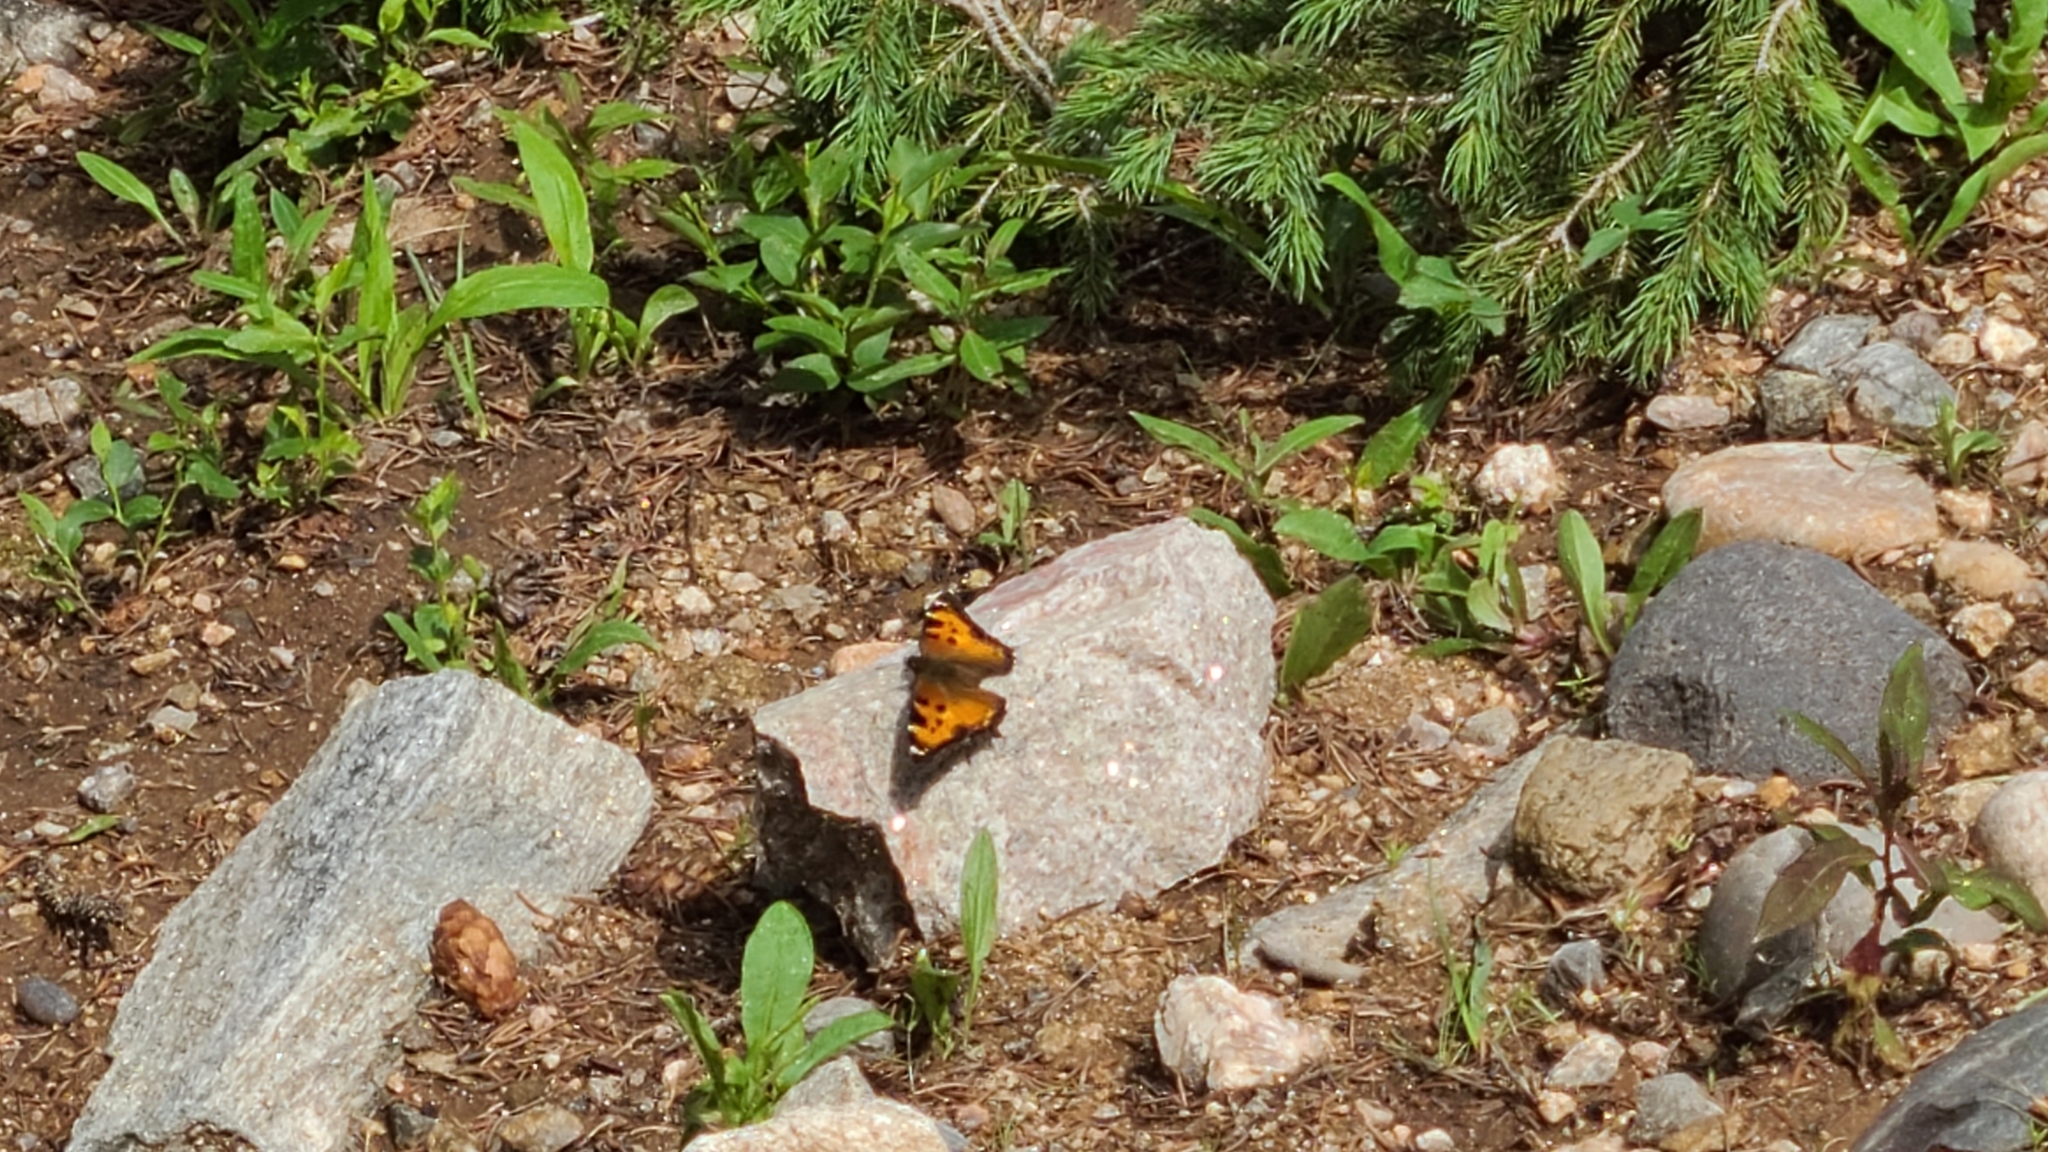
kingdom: Animalia
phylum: Arthropoda
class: Insecta
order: Lepidoptera
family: Nymphalidae
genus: Nymphalis
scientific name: Nymphalis californica
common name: California tortoiseshell
